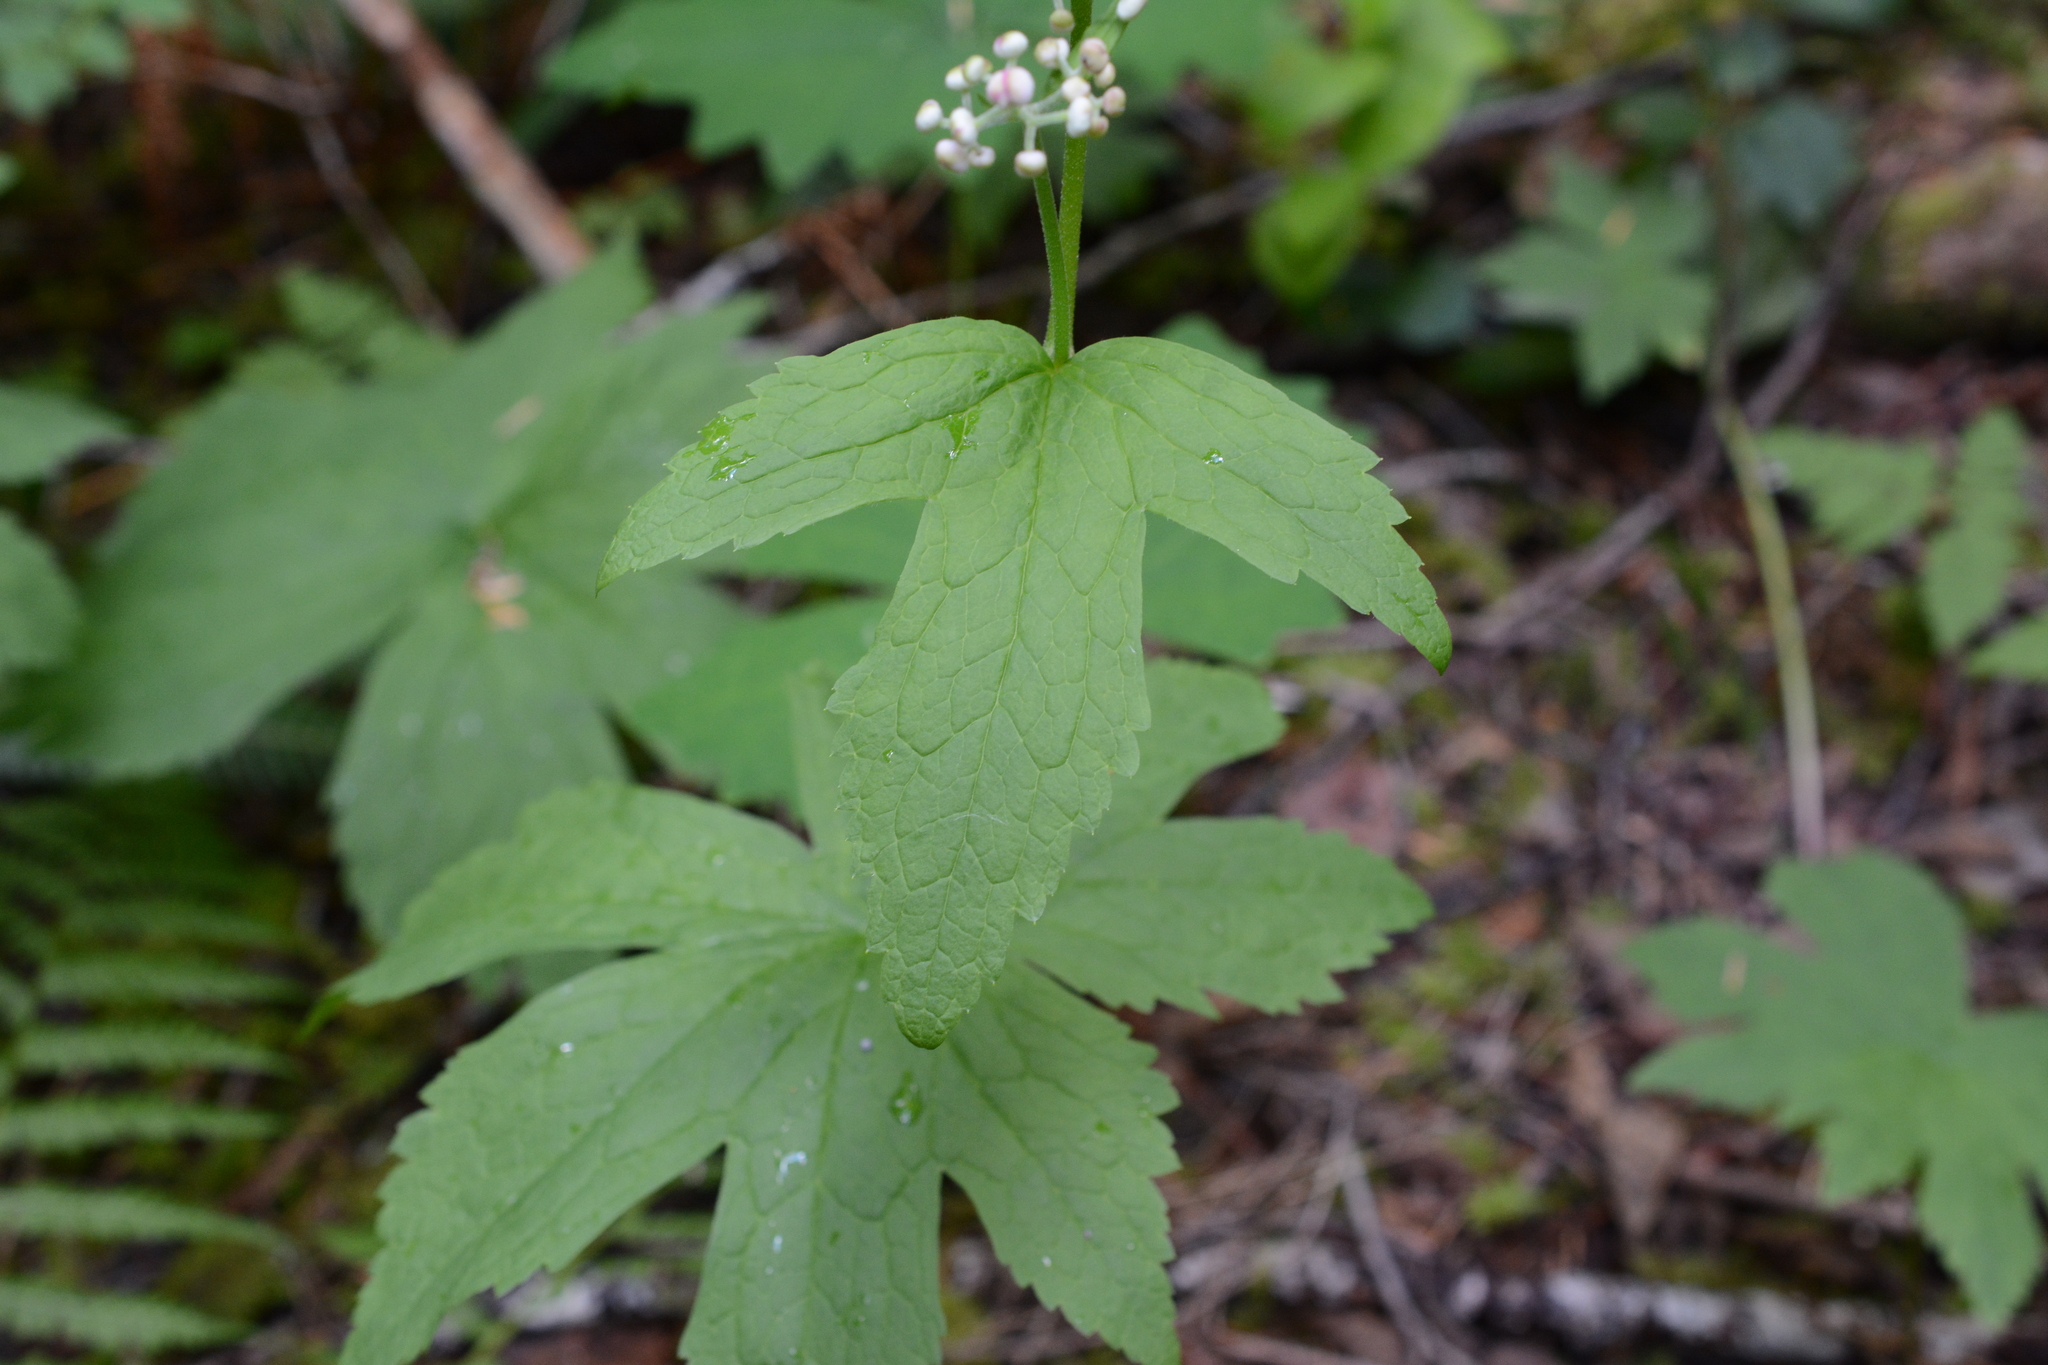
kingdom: Plantae
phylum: Tracheophyta
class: Magnoliopsida
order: Ranunculales
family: Ranunculaceae
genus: Trautvetteria
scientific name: Trautvetteria carolinensis
